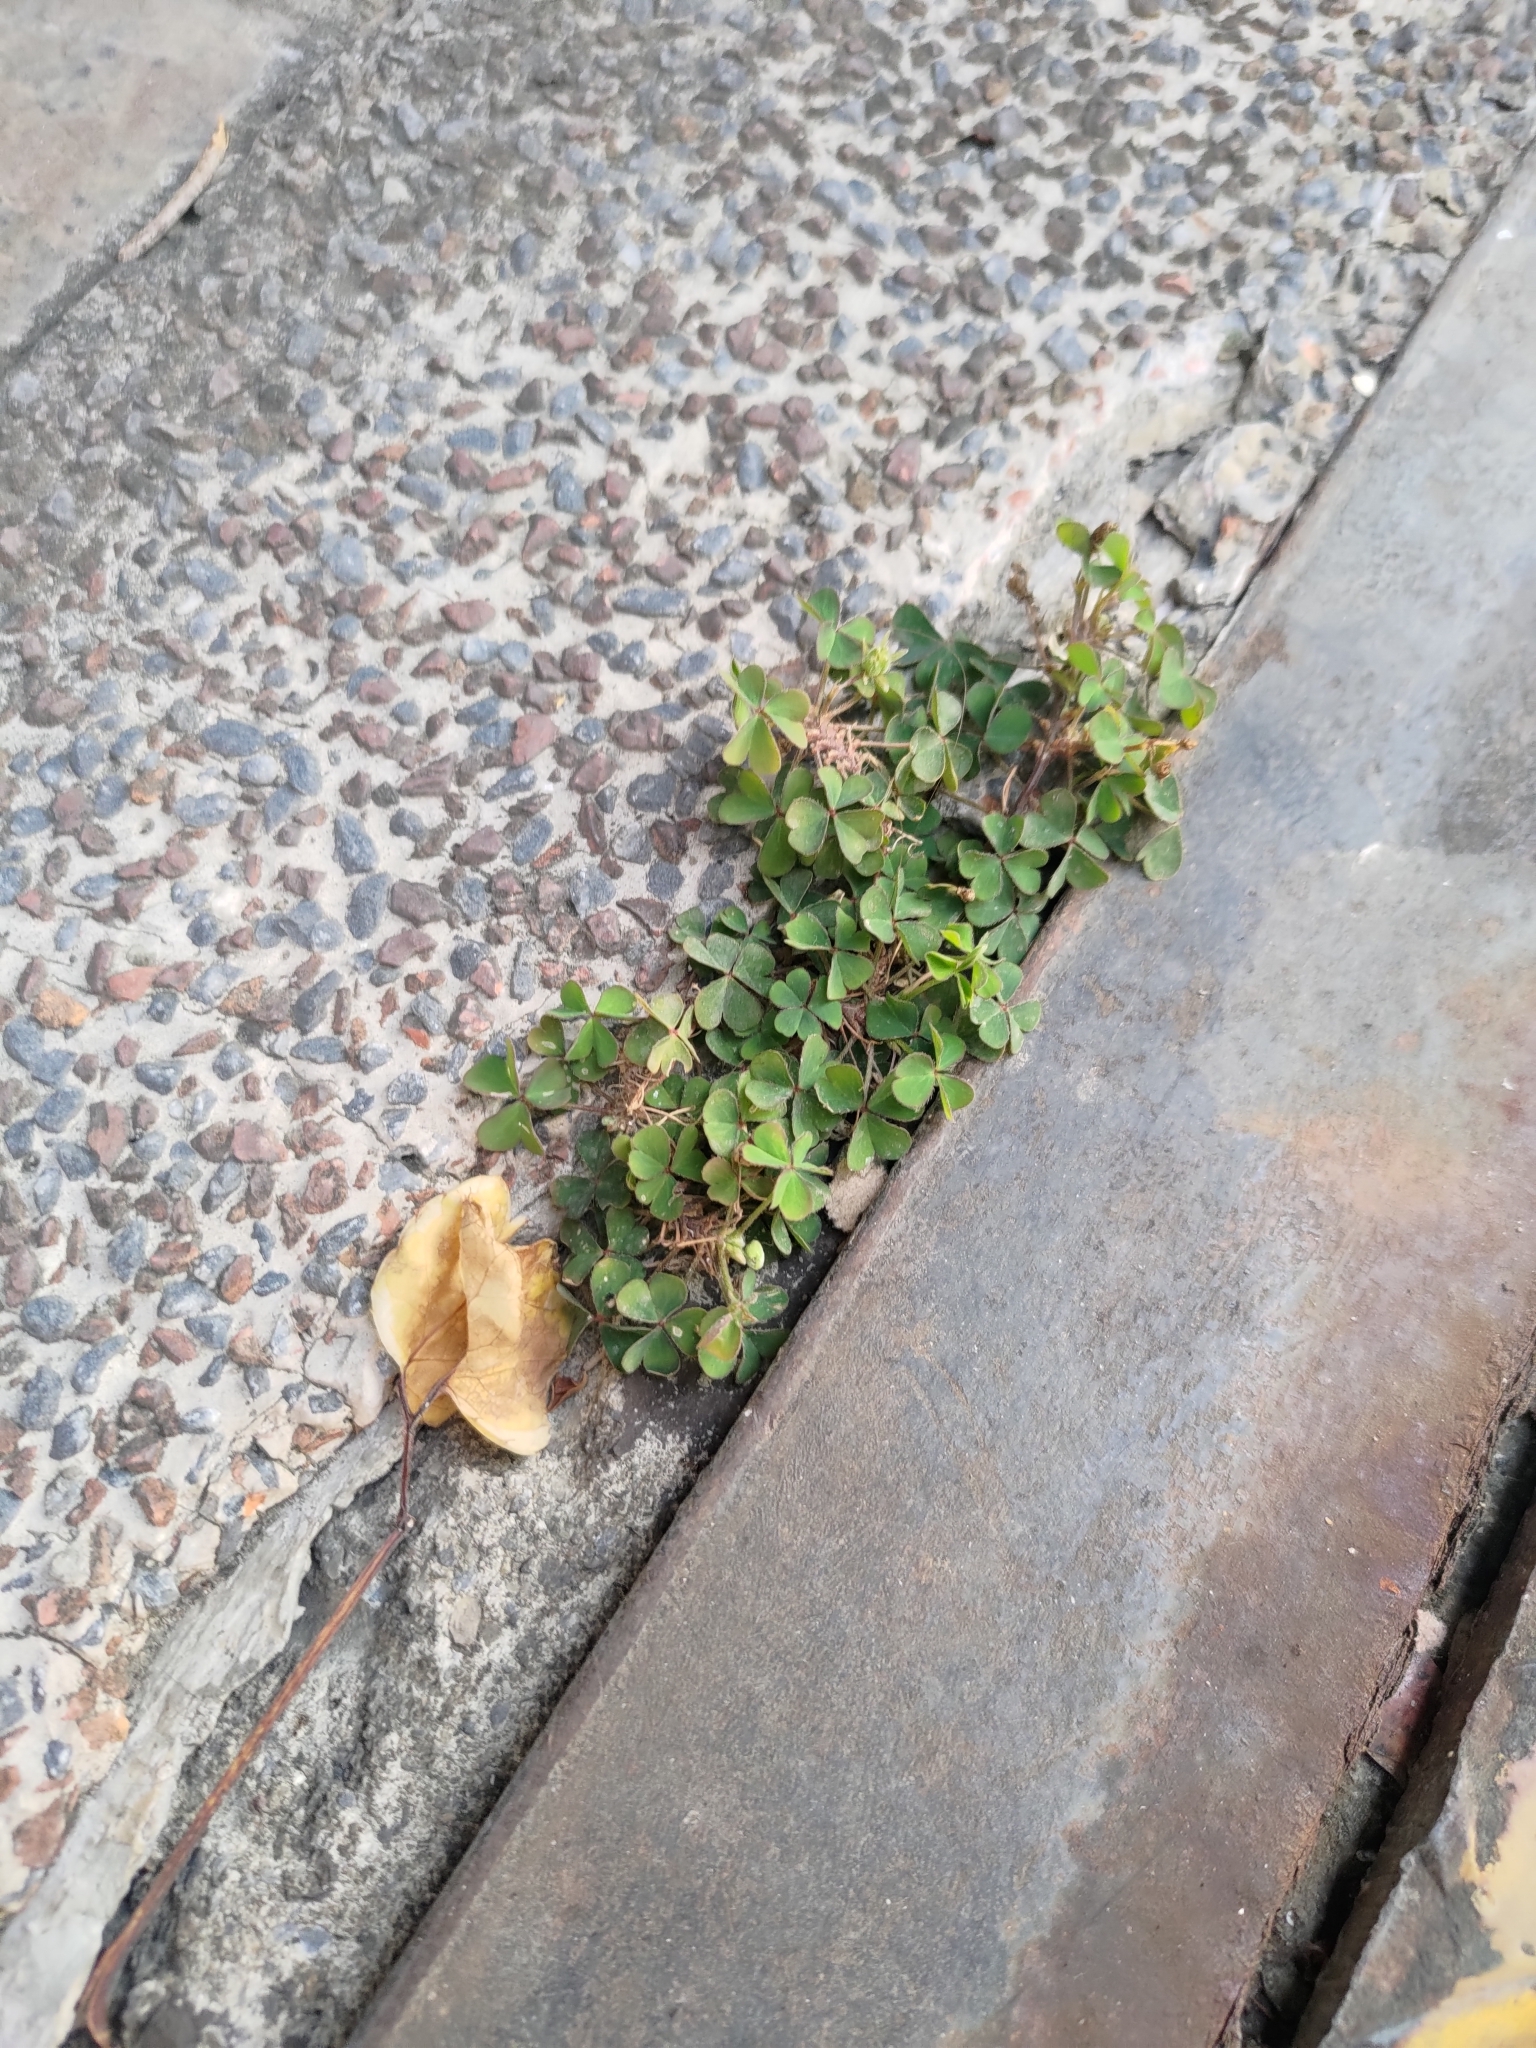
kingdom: Plantae
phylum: Tracheophyta
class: Magnoliopsida
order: Oxalidales
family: Oxalidaceae
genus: Oxalis
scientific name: Oxalis corniculata
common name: Procumbent yellow-sorrel
